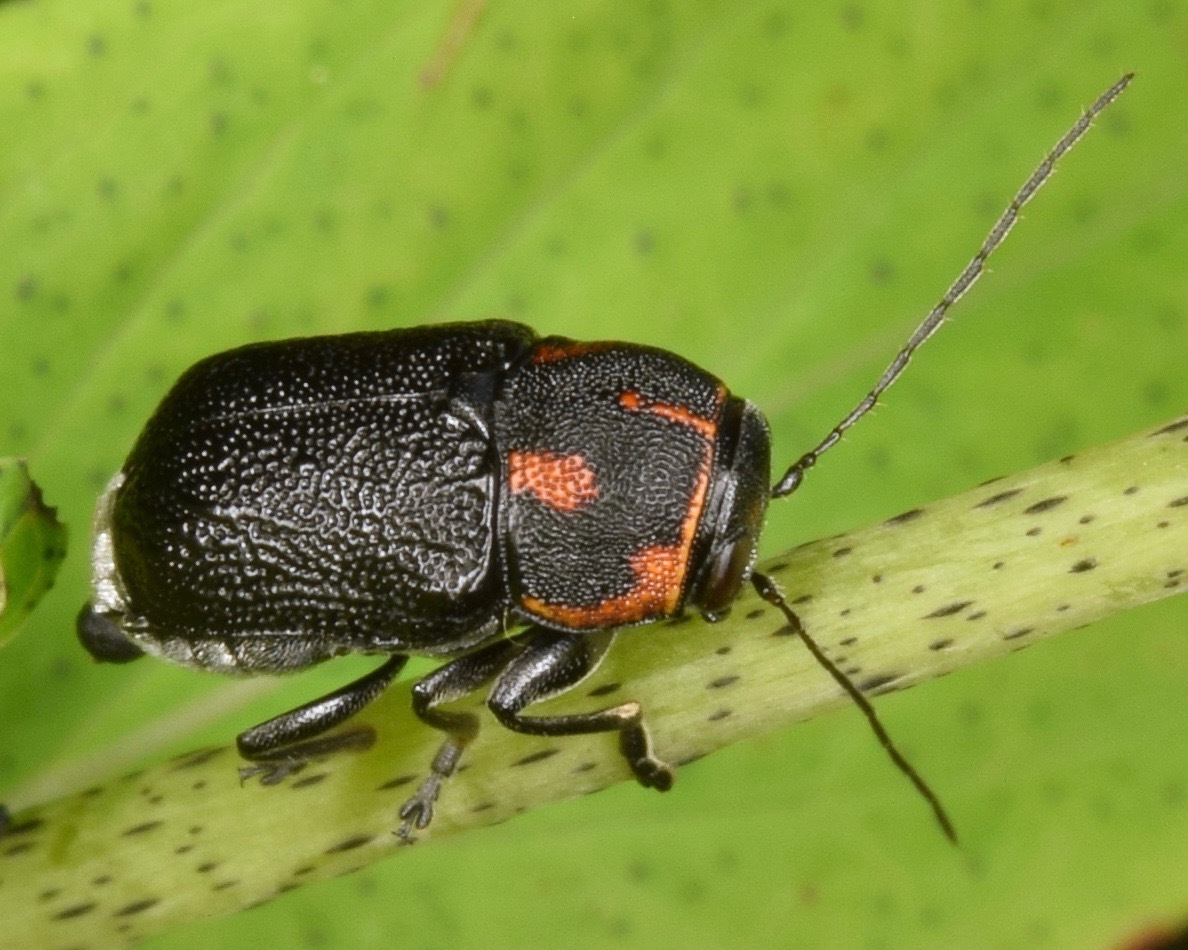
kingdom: Animalia
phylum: Arthropoda
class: Insecta
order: Coleoptera
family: Chrysomelidae
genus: Pachybrachis
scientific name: Pachybrachis trinotatus
